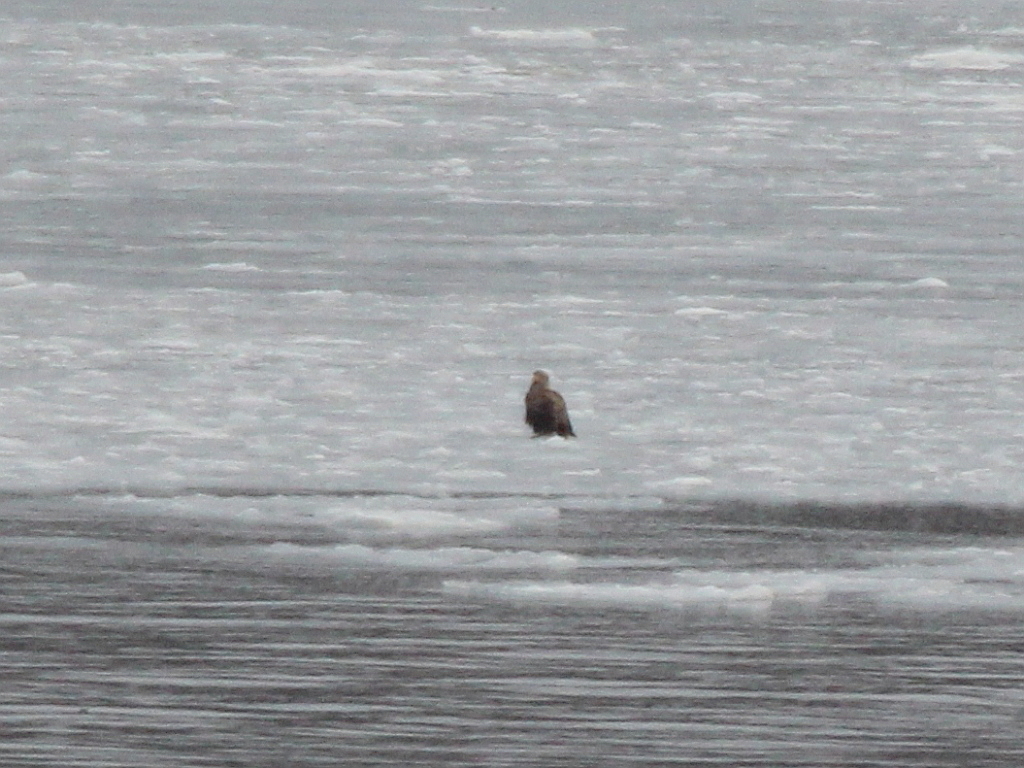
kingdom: Animalia
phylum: Chordata
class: Aves
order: Accipitriformes
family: Accipitridae
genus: Haliaeetus
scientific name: Haliaeetus albicilla
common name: White-tailed eagle
